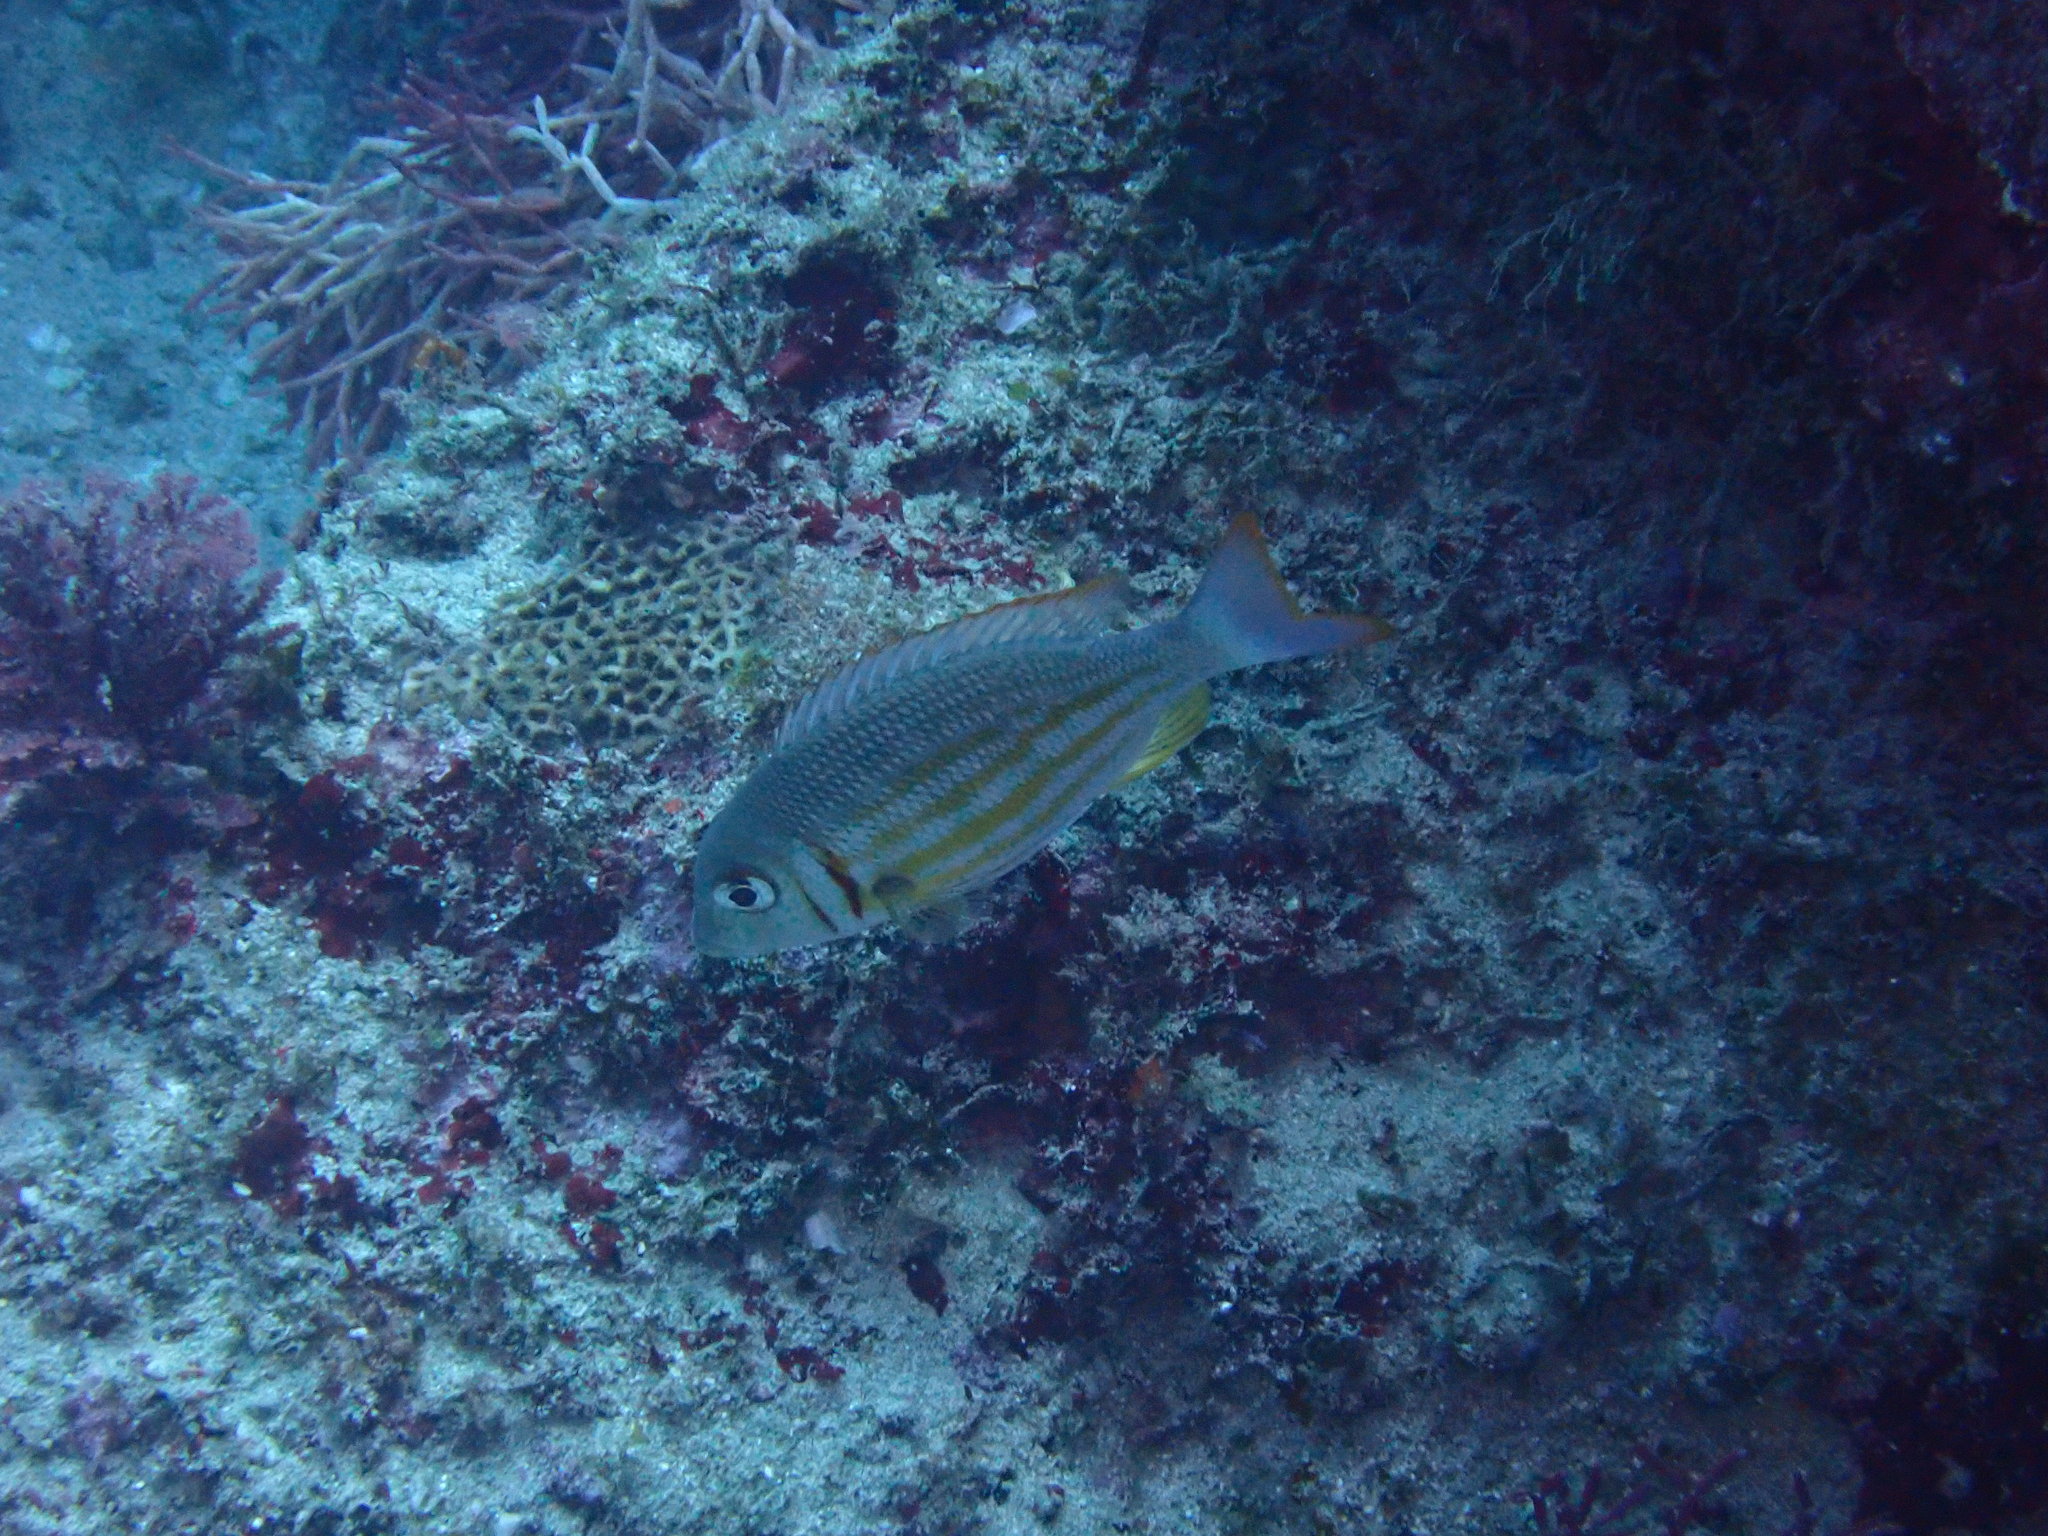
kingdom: Animalia
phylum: Chordata
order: Perciformes
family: Lethrinidae
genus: Lethrinus
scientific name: Lethrinus ornatus
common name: Ornate emperor
